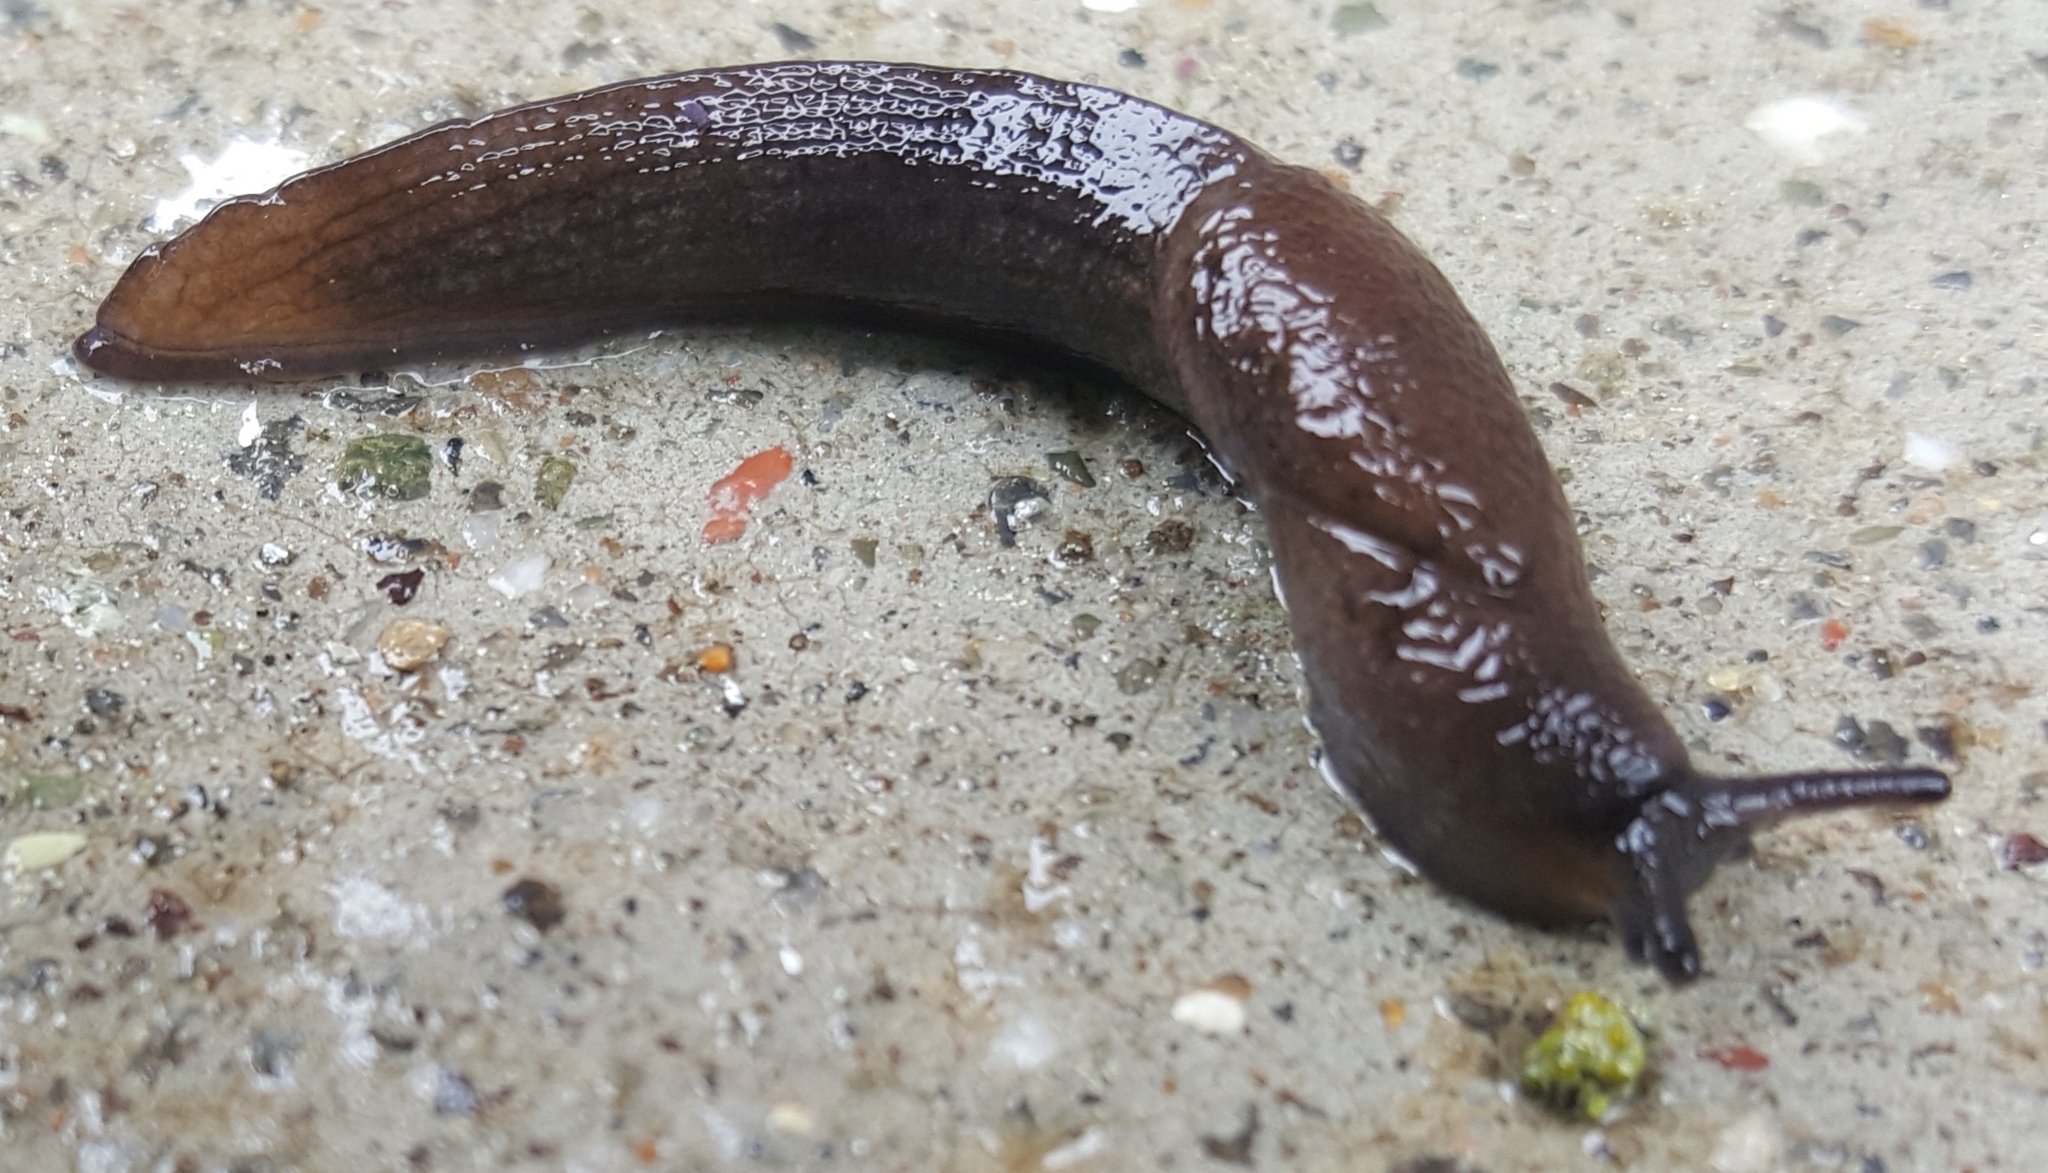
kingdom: Animalia
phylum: Mollusca
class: Gastropoda
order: Stylommatophora
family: Milacidae
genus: Milax
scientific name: Milax gagates
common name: Greenhouse slug
